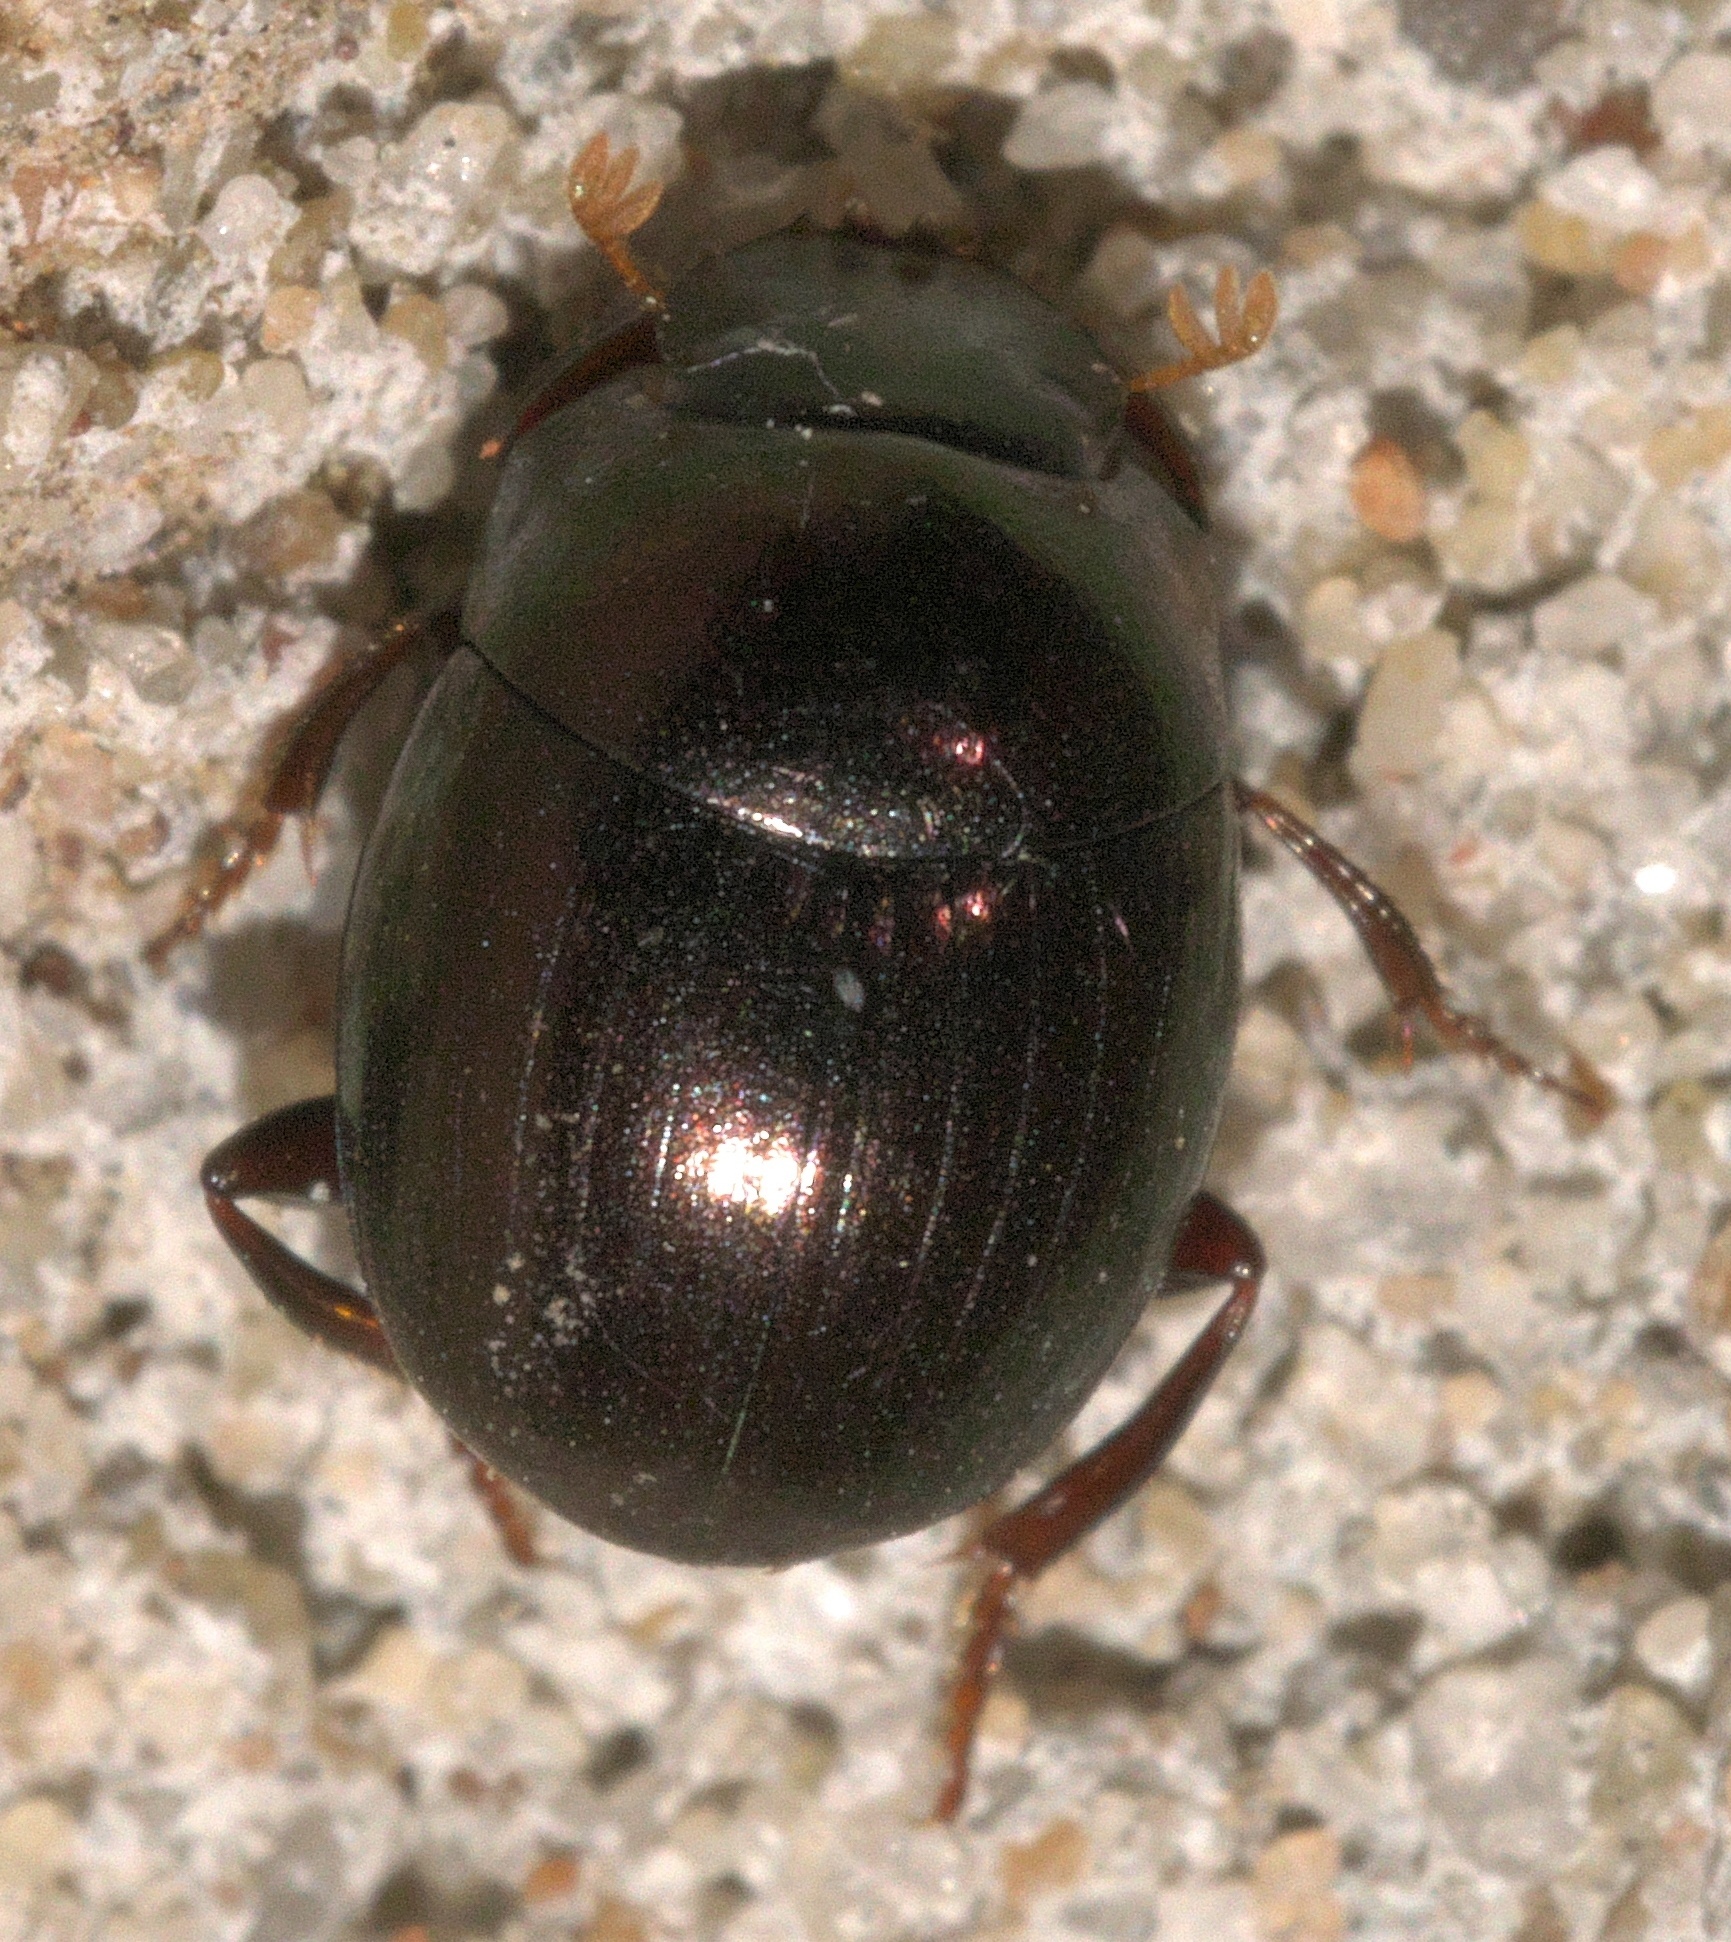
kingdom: Animalia
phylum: Arthropoda
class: Insecta
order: Coleoptera
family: Scarabaeidae
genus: Pseudocanthon
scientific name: Pseudocanthon perplexus
